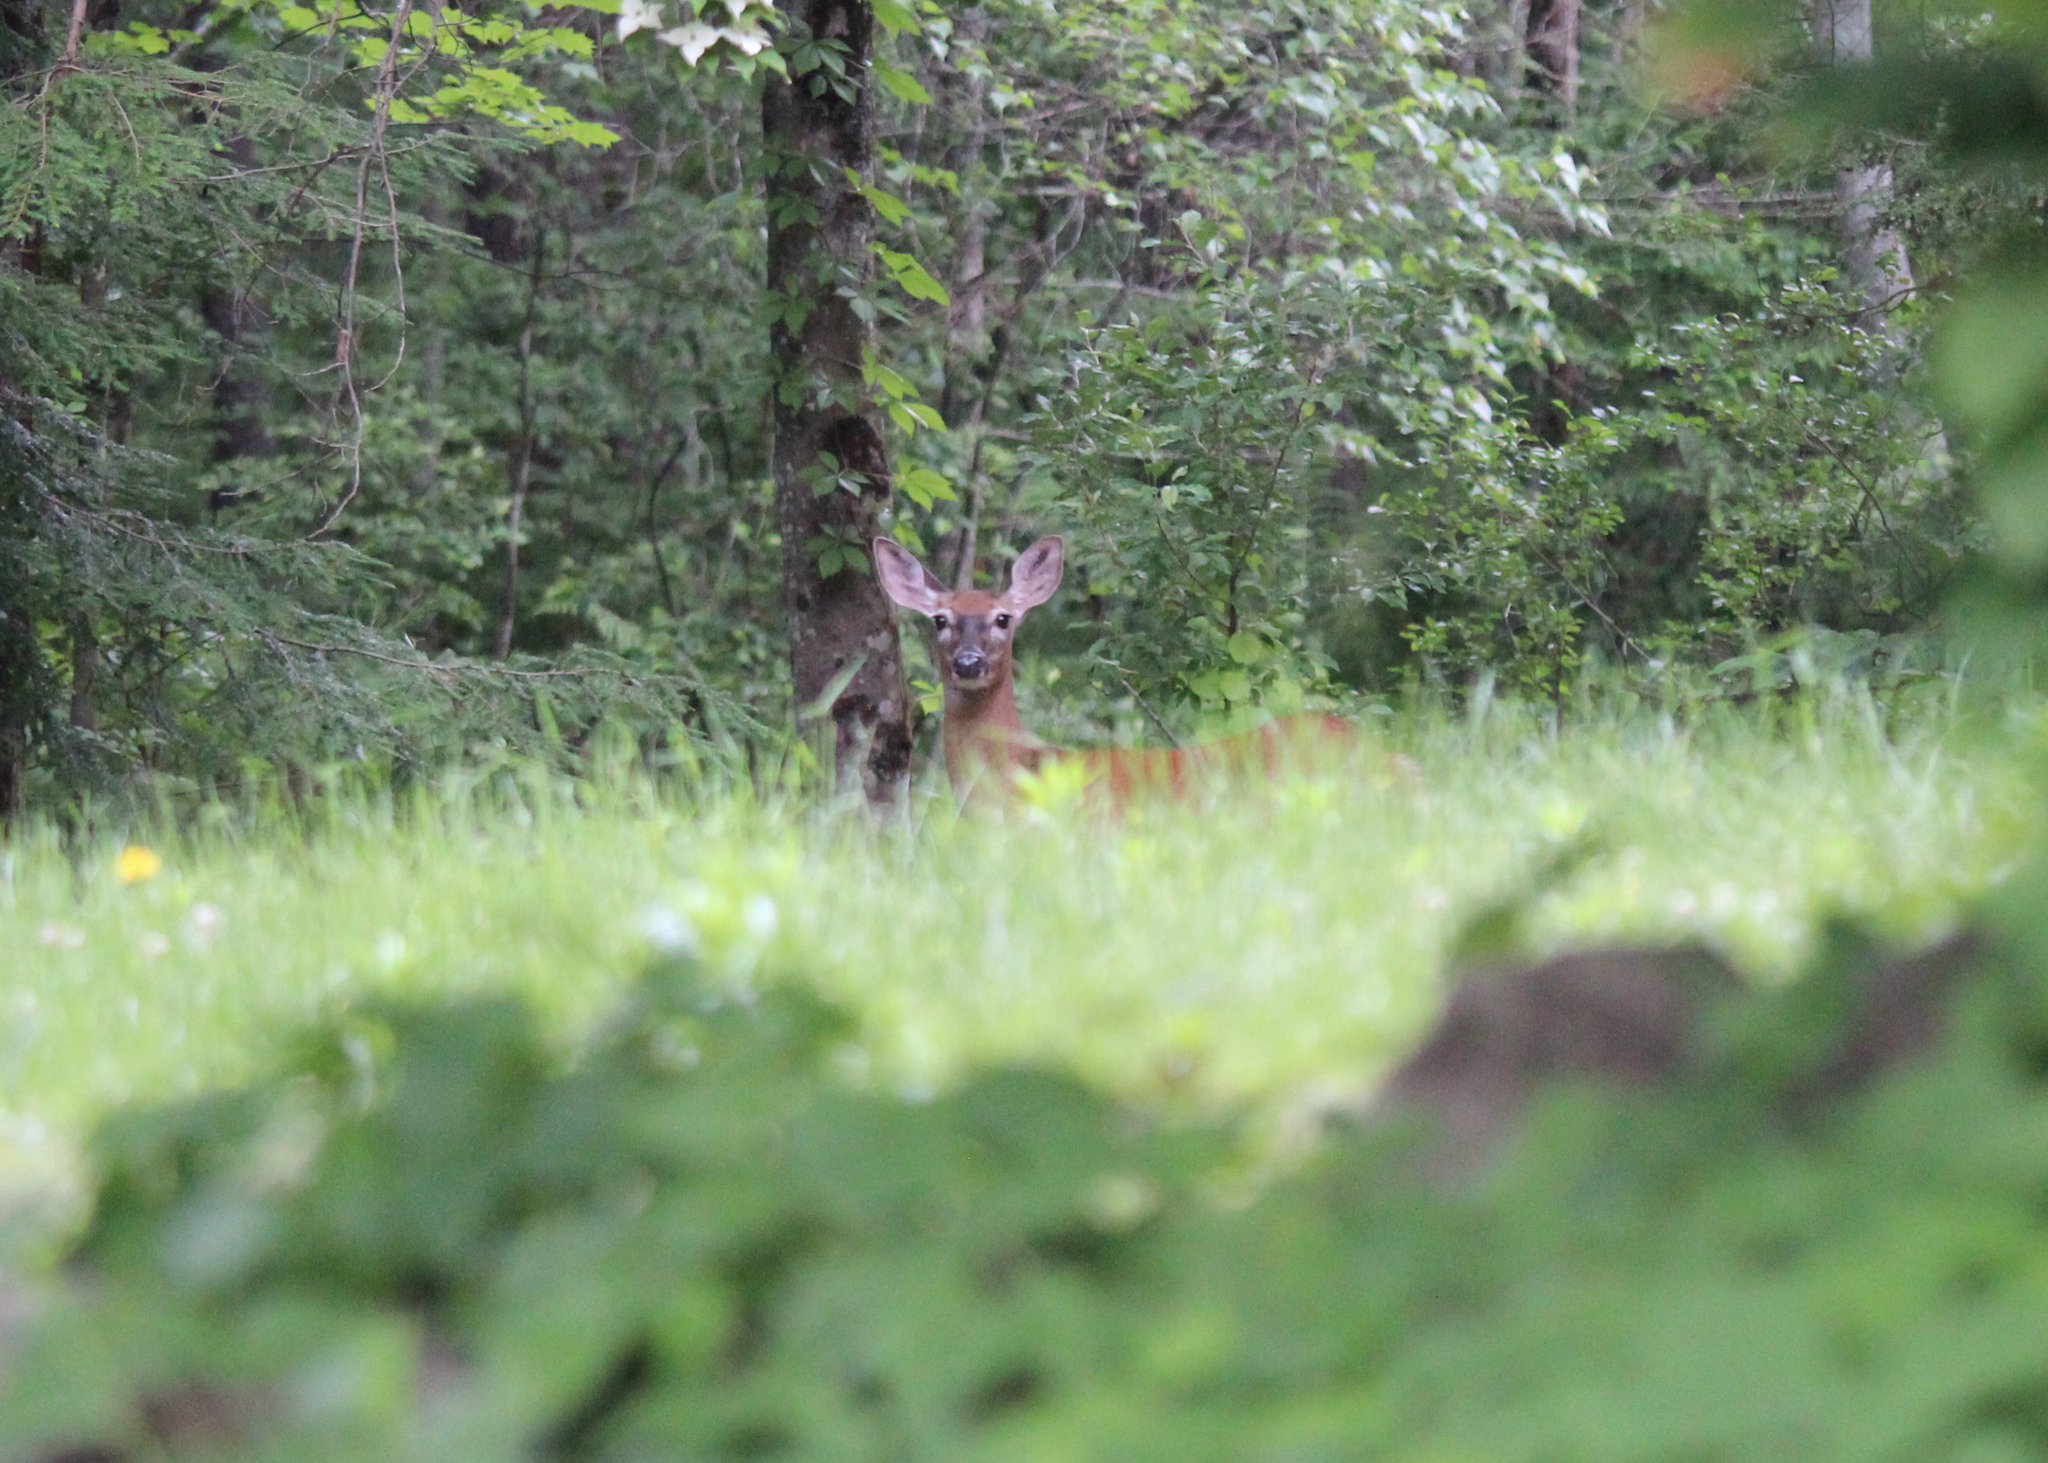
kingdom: Animalia
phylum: Chordata
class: Mammalia
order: Artiodactyla
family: Cervidae
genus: Odocoileus
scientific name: Odocoileus virginianus
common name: White-tailed deer
